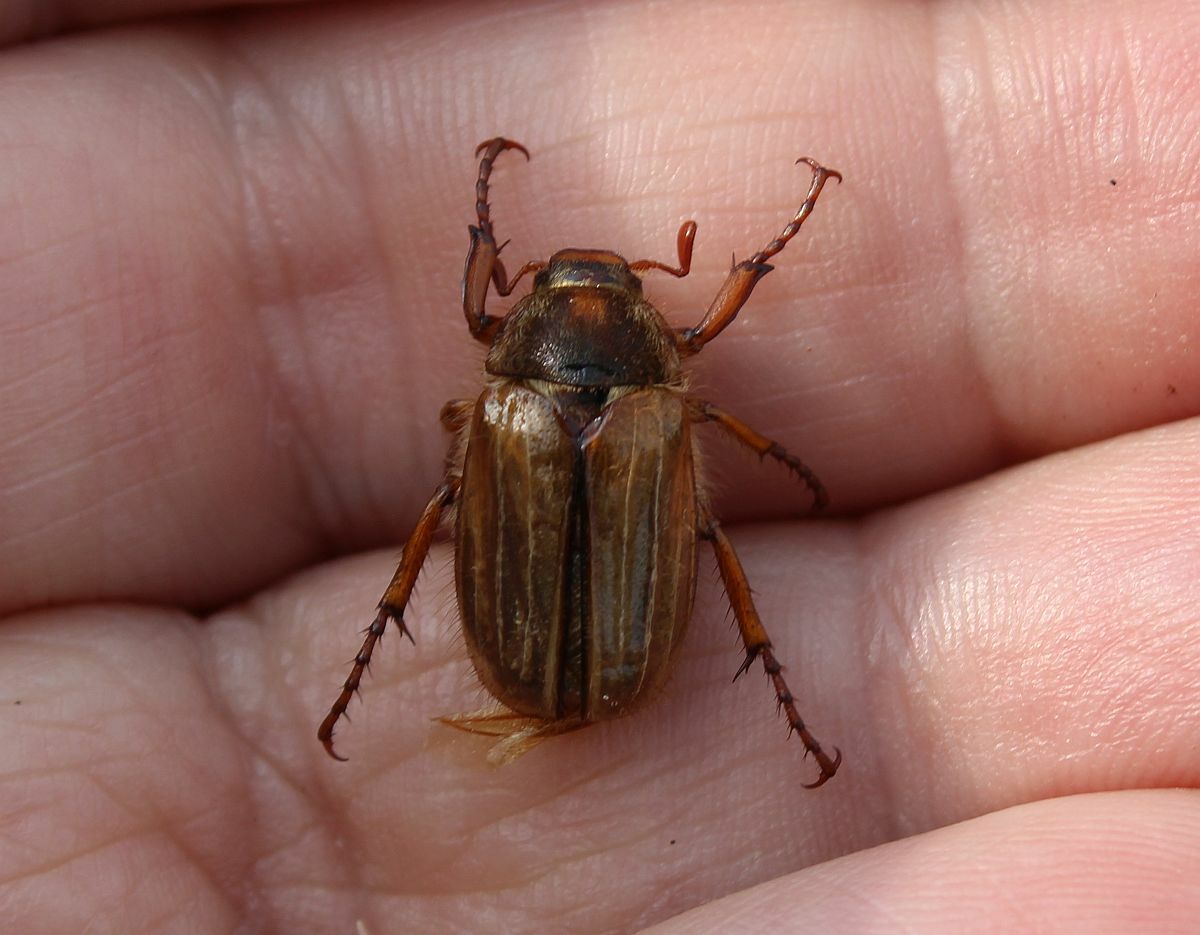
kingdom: Animalia
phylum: Arthropoda
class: Insecta
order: Coleoptera
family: Scarabaeidae
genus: Amphimallon
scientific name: Amphimallon solstitiale
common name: Summer chafer
